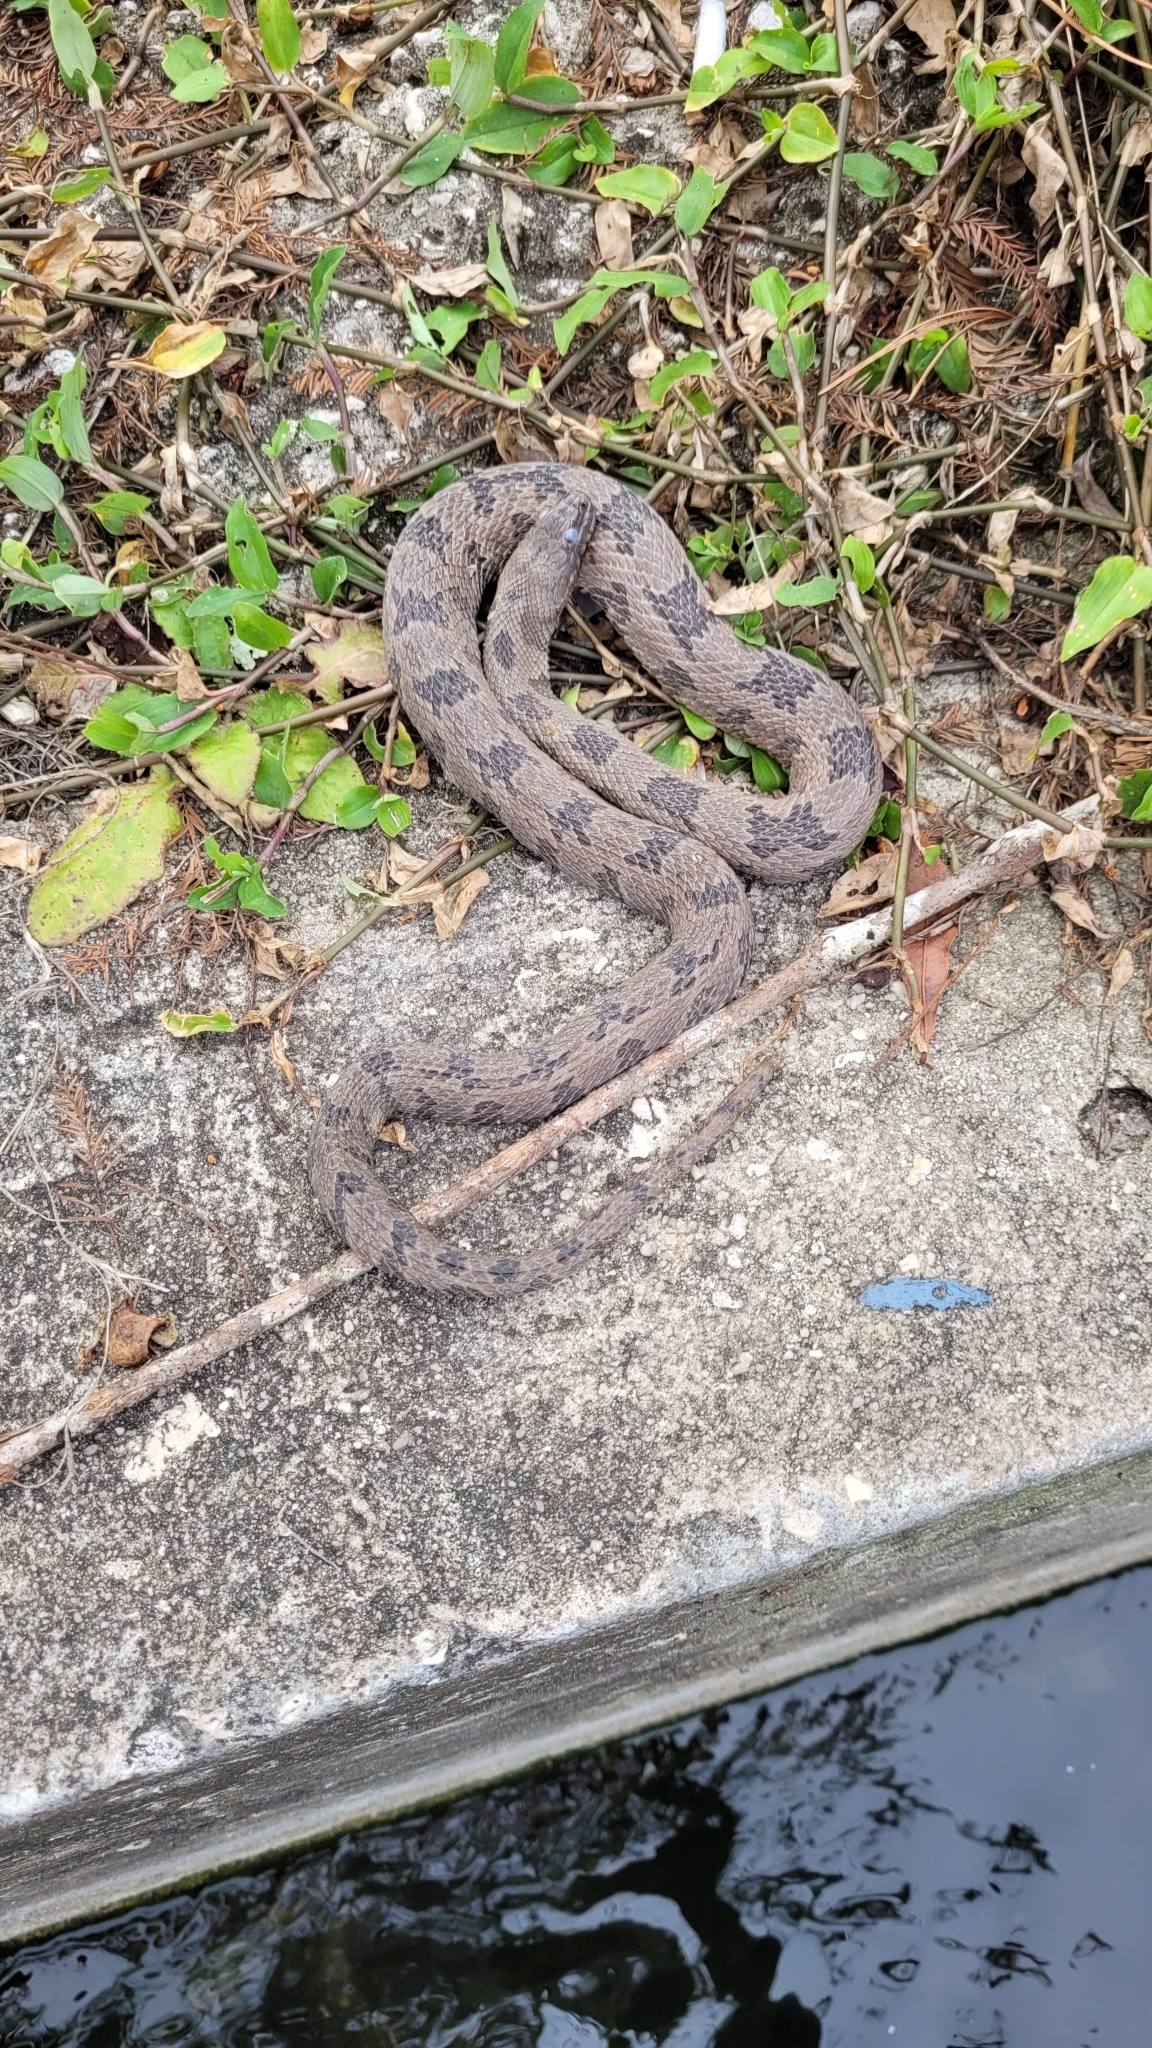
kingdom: Animalia
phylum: Chordata
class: Squamata
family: Colubridae
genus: Nerodia
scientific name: Nerodia taxispilota
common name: Brown water snake
